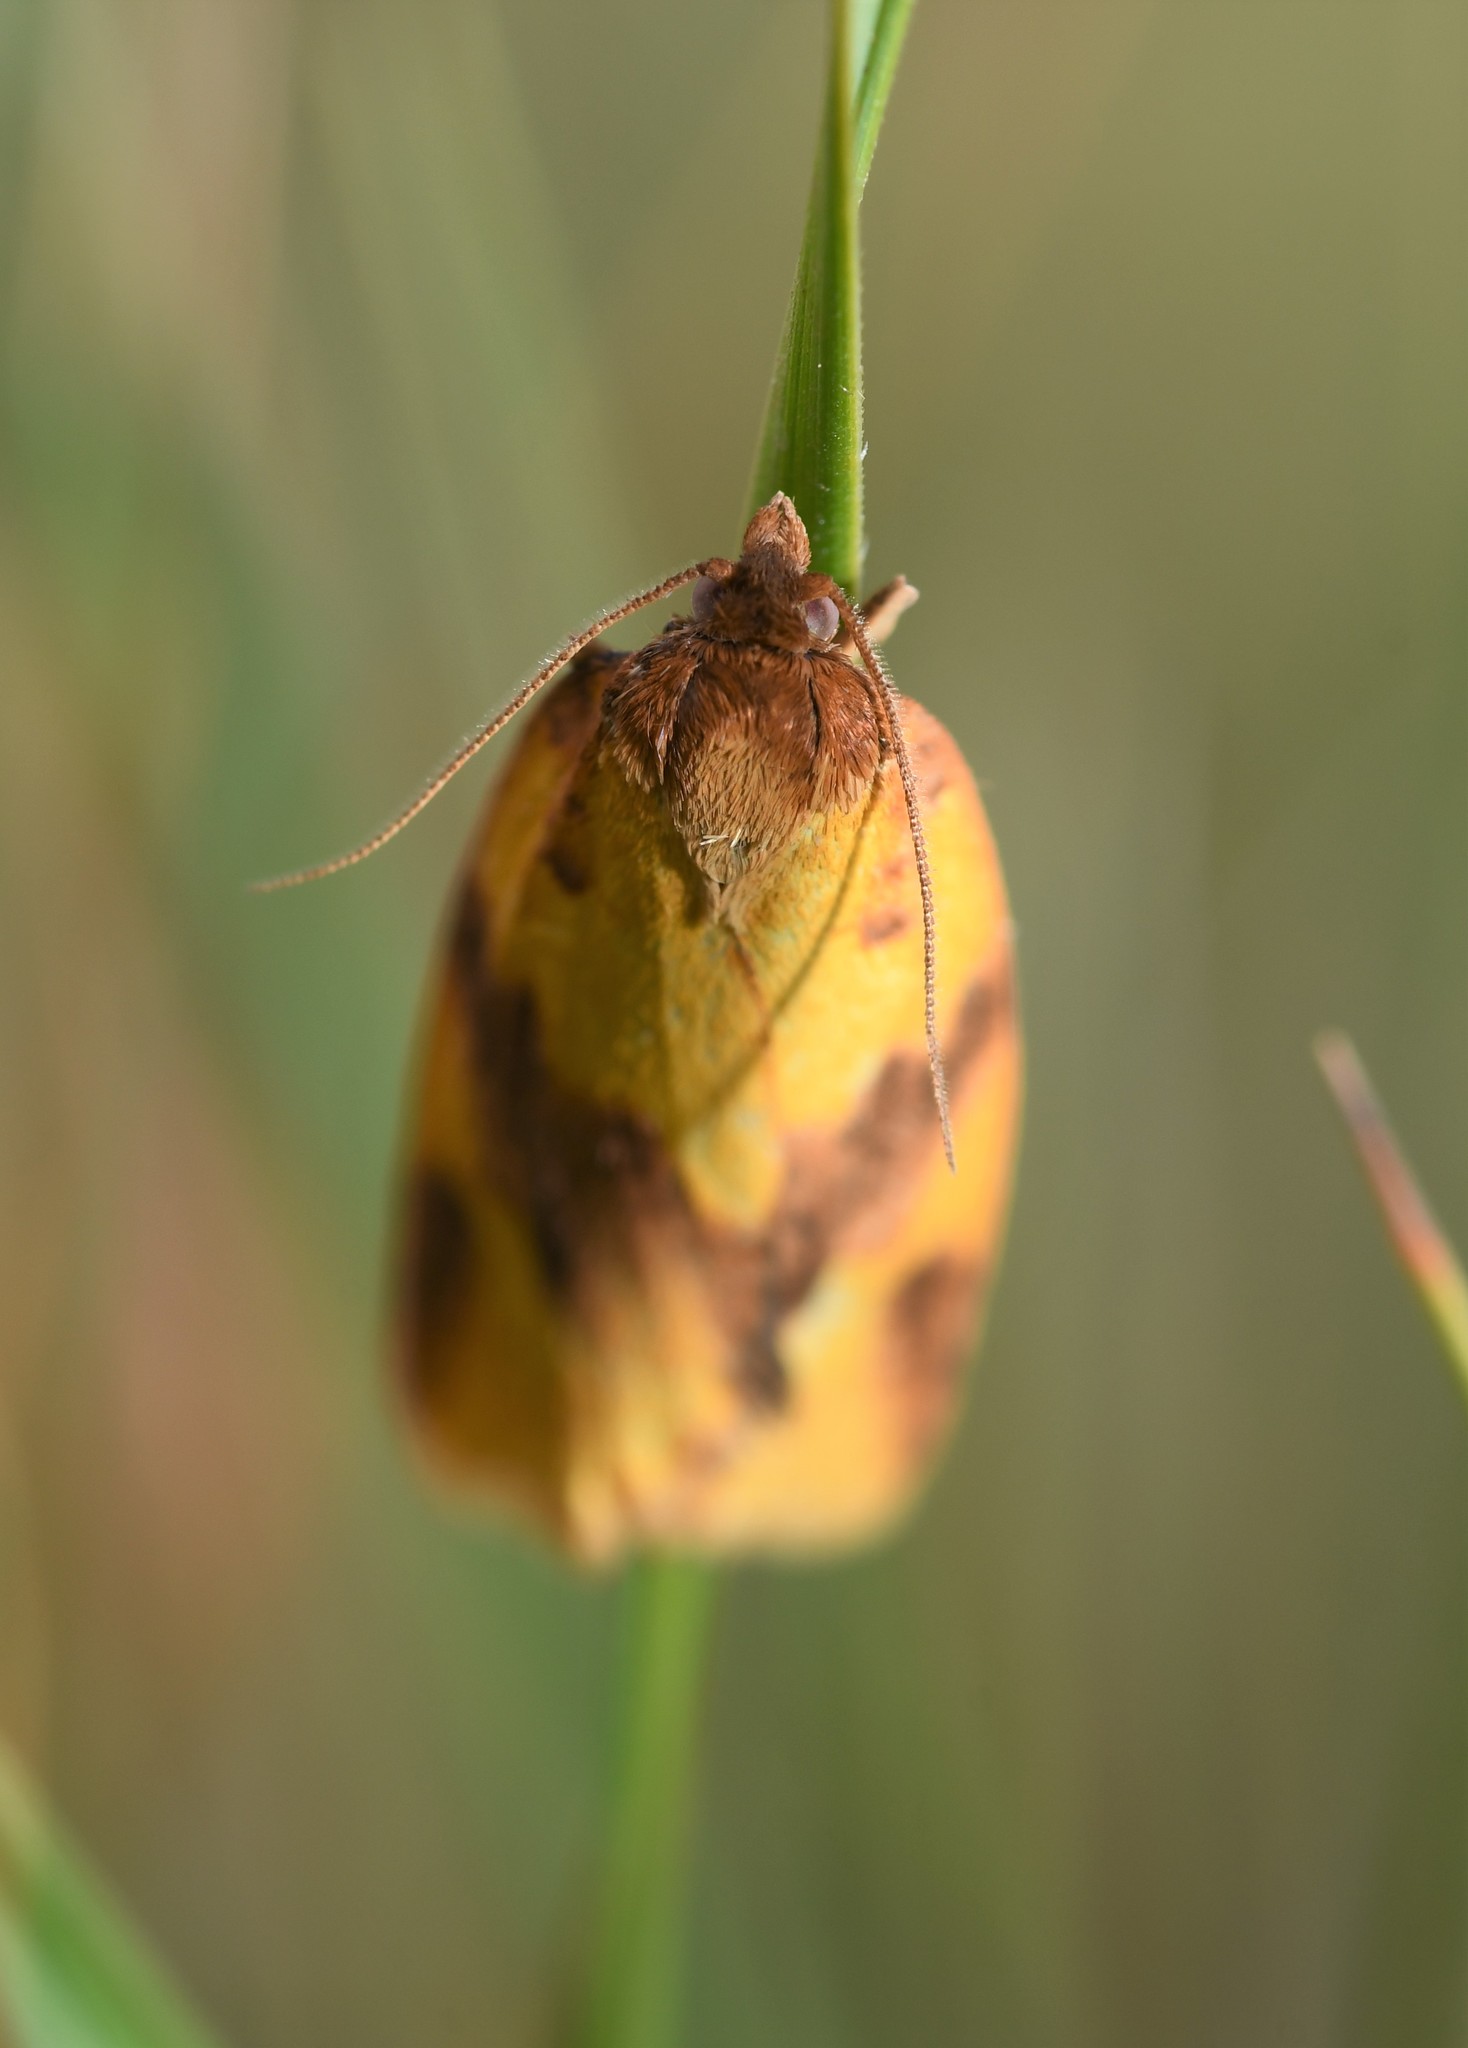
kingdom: Animalia
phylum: Arthropoda
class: Insecta
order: Lepidoptera
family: Tortricidae
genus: Aphelia
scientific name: Aphelia peramplana
